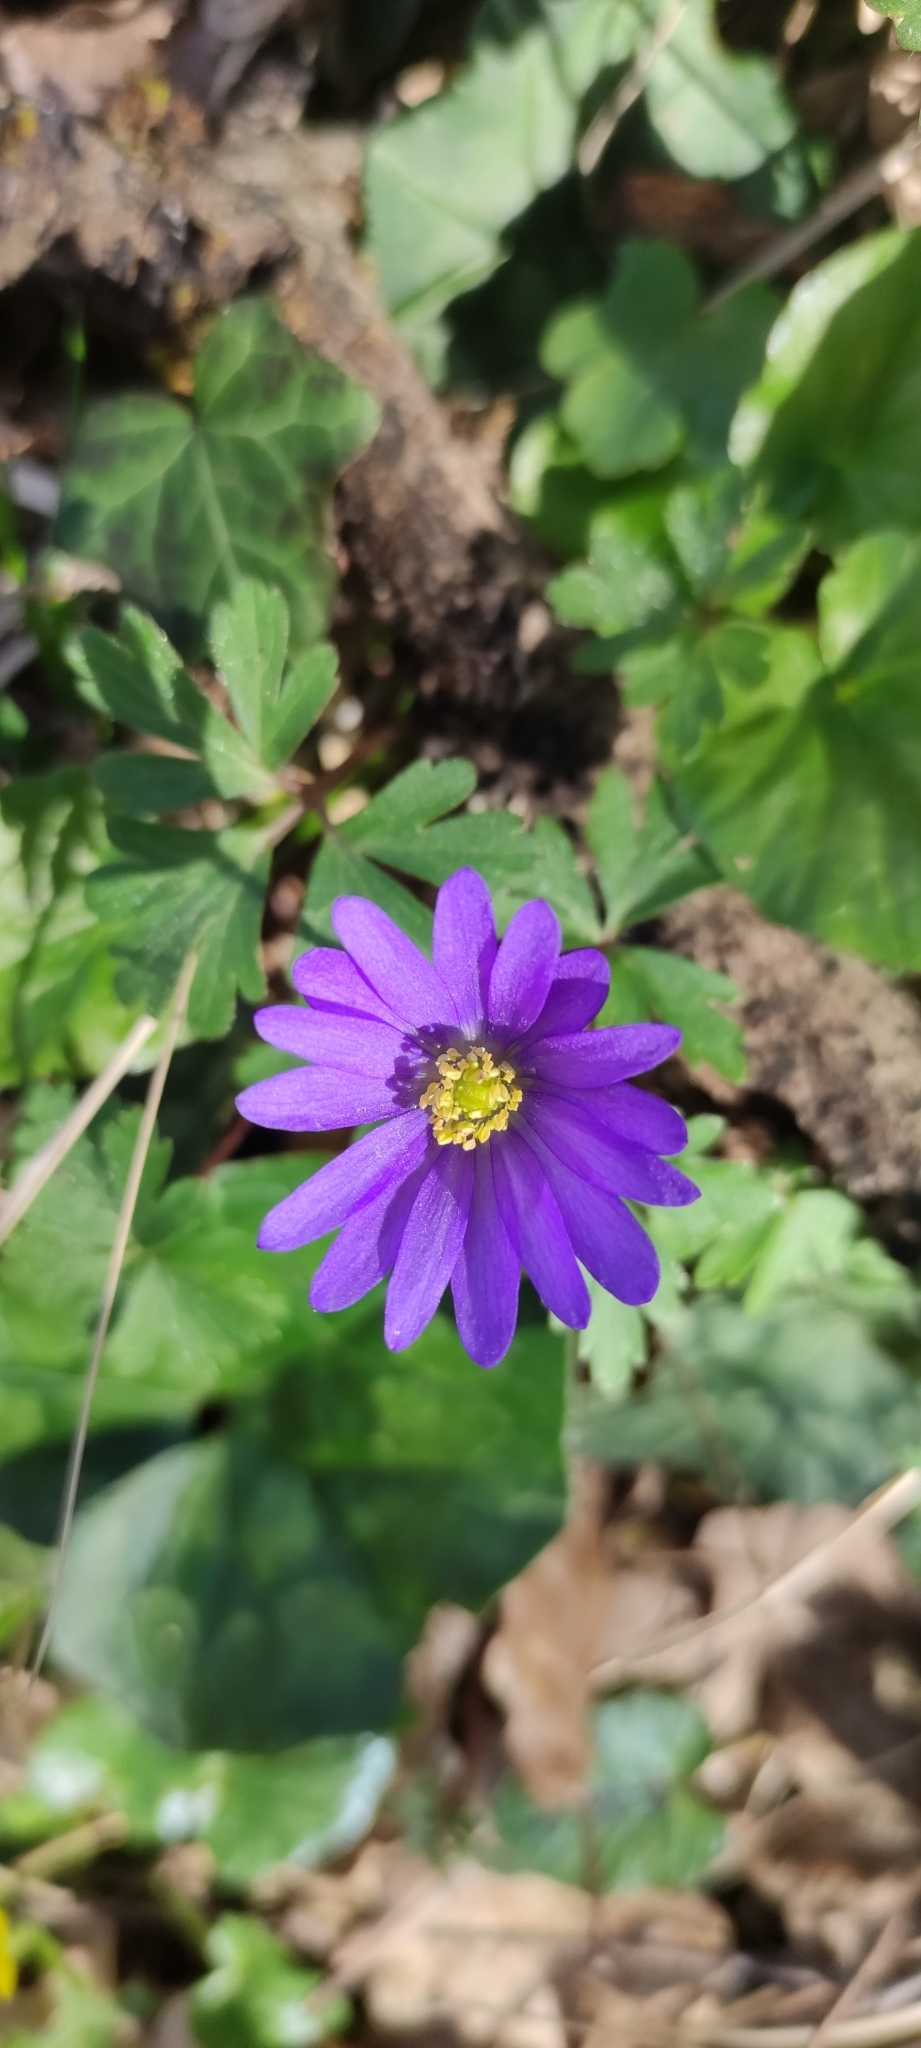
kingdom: Plantae
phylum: Tracheophyta
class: Magnoliopsida
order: Ranunculales
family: Ranunculaceae
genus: Anemone
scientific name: Anemone blanda
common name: Balkan anemone
